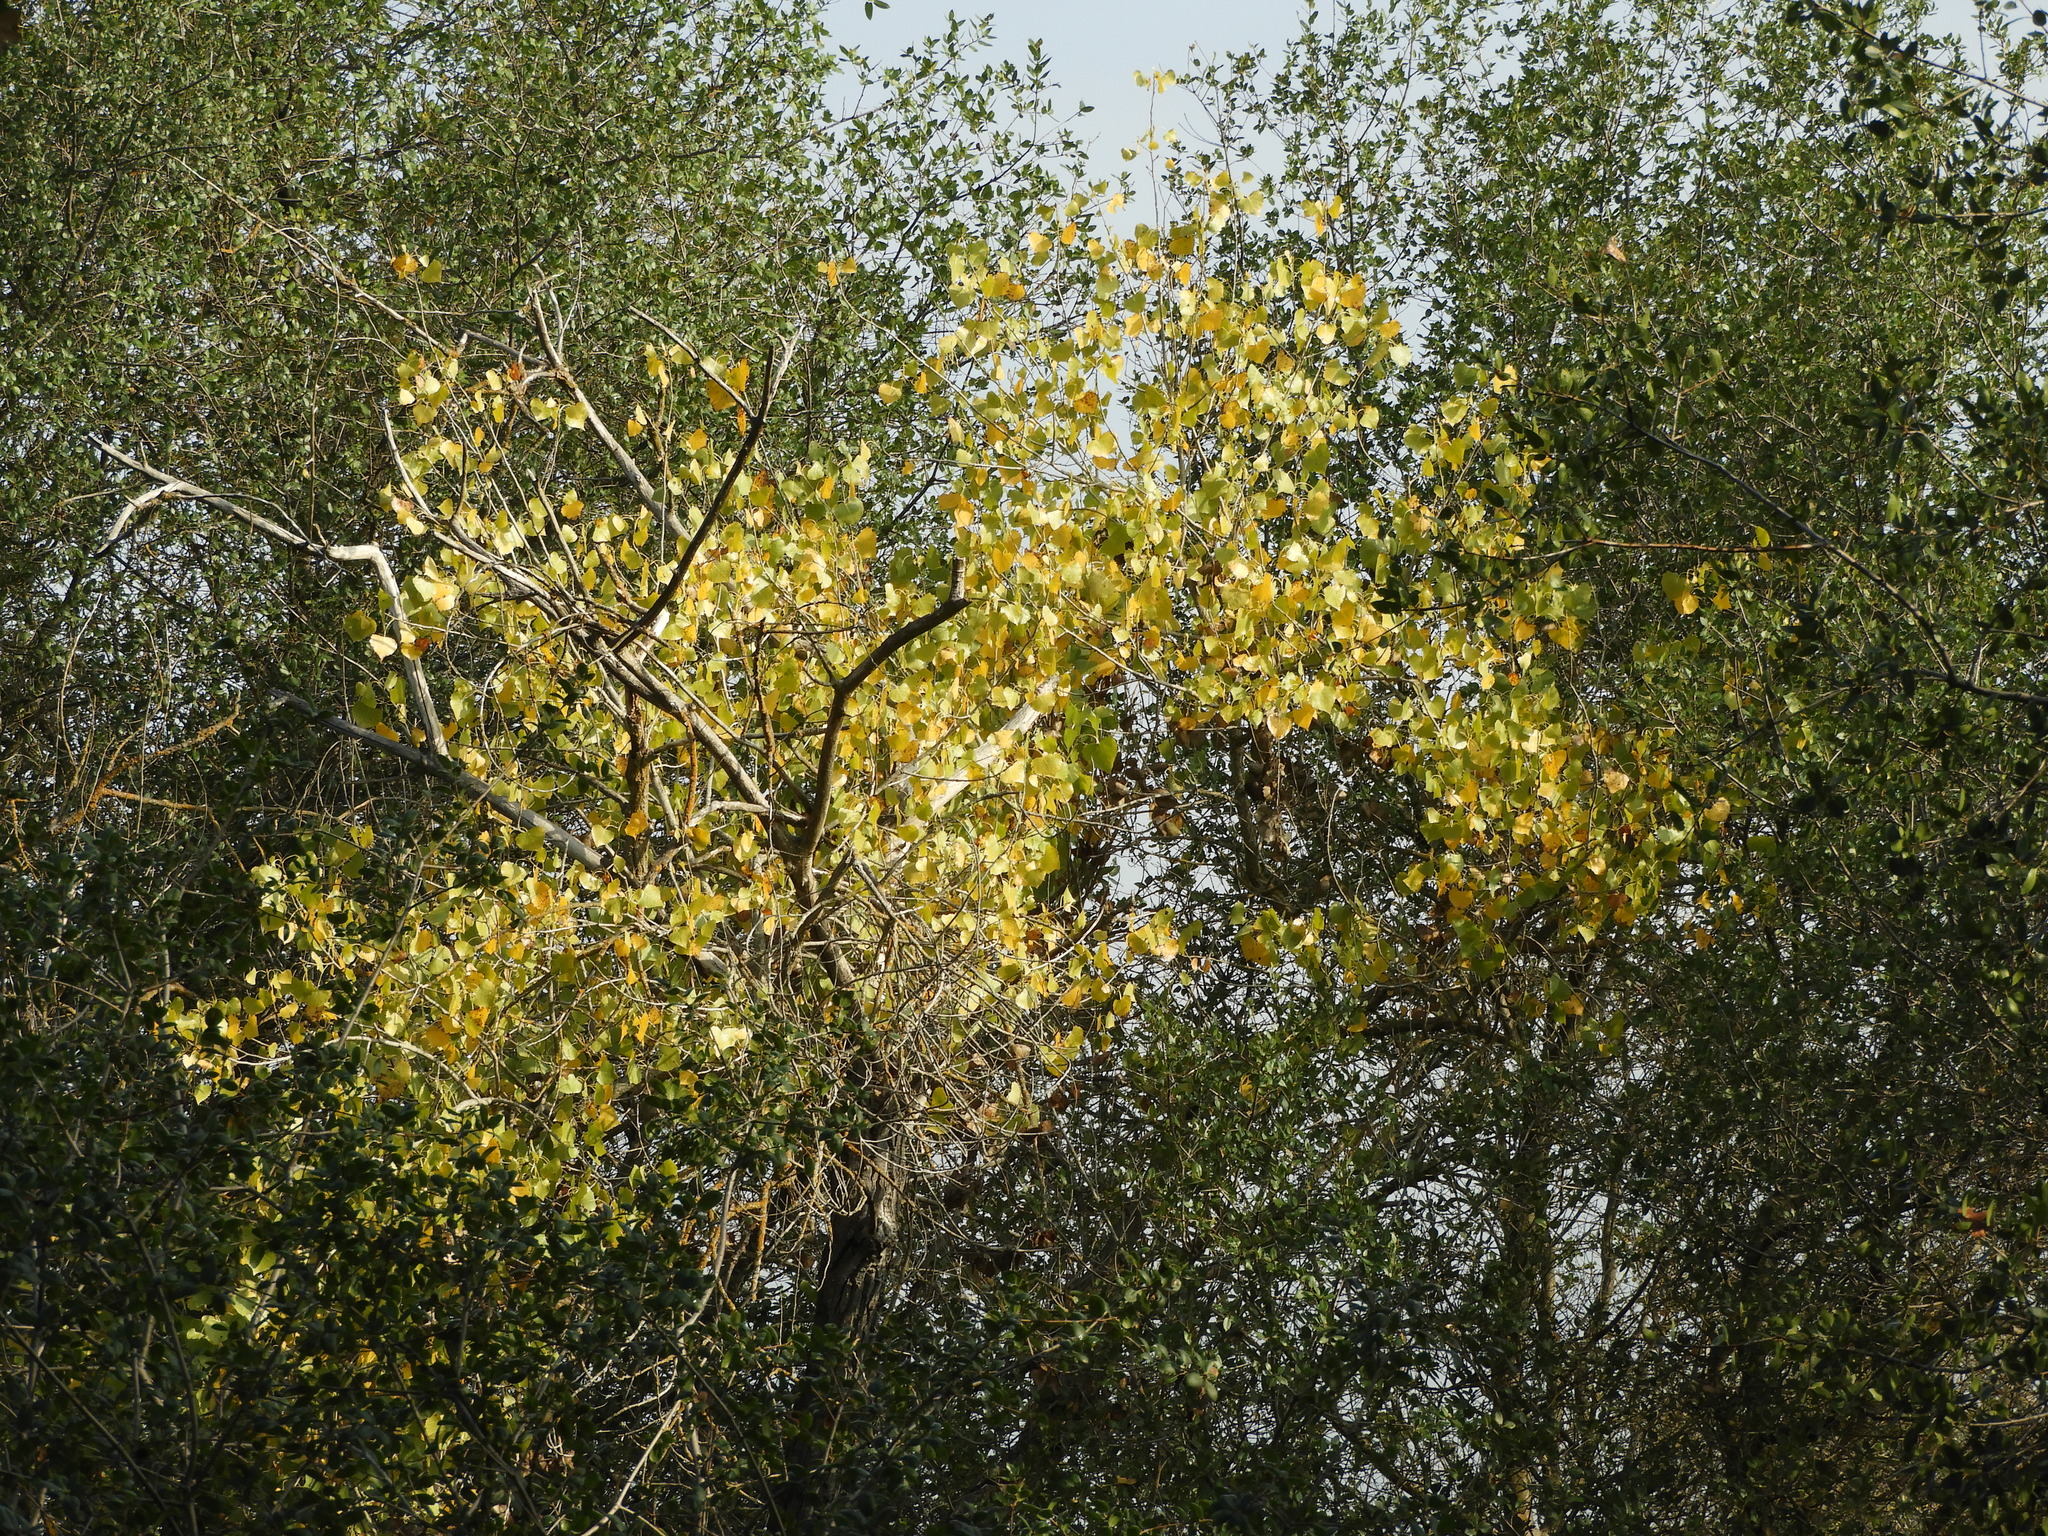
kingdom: Plantae
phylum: Tracheophyta
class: Magnoliopsida
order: Malpighiales
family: Salicaceae
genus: Populus
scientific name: Populus fremontii
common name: Fremont's cottonwood
